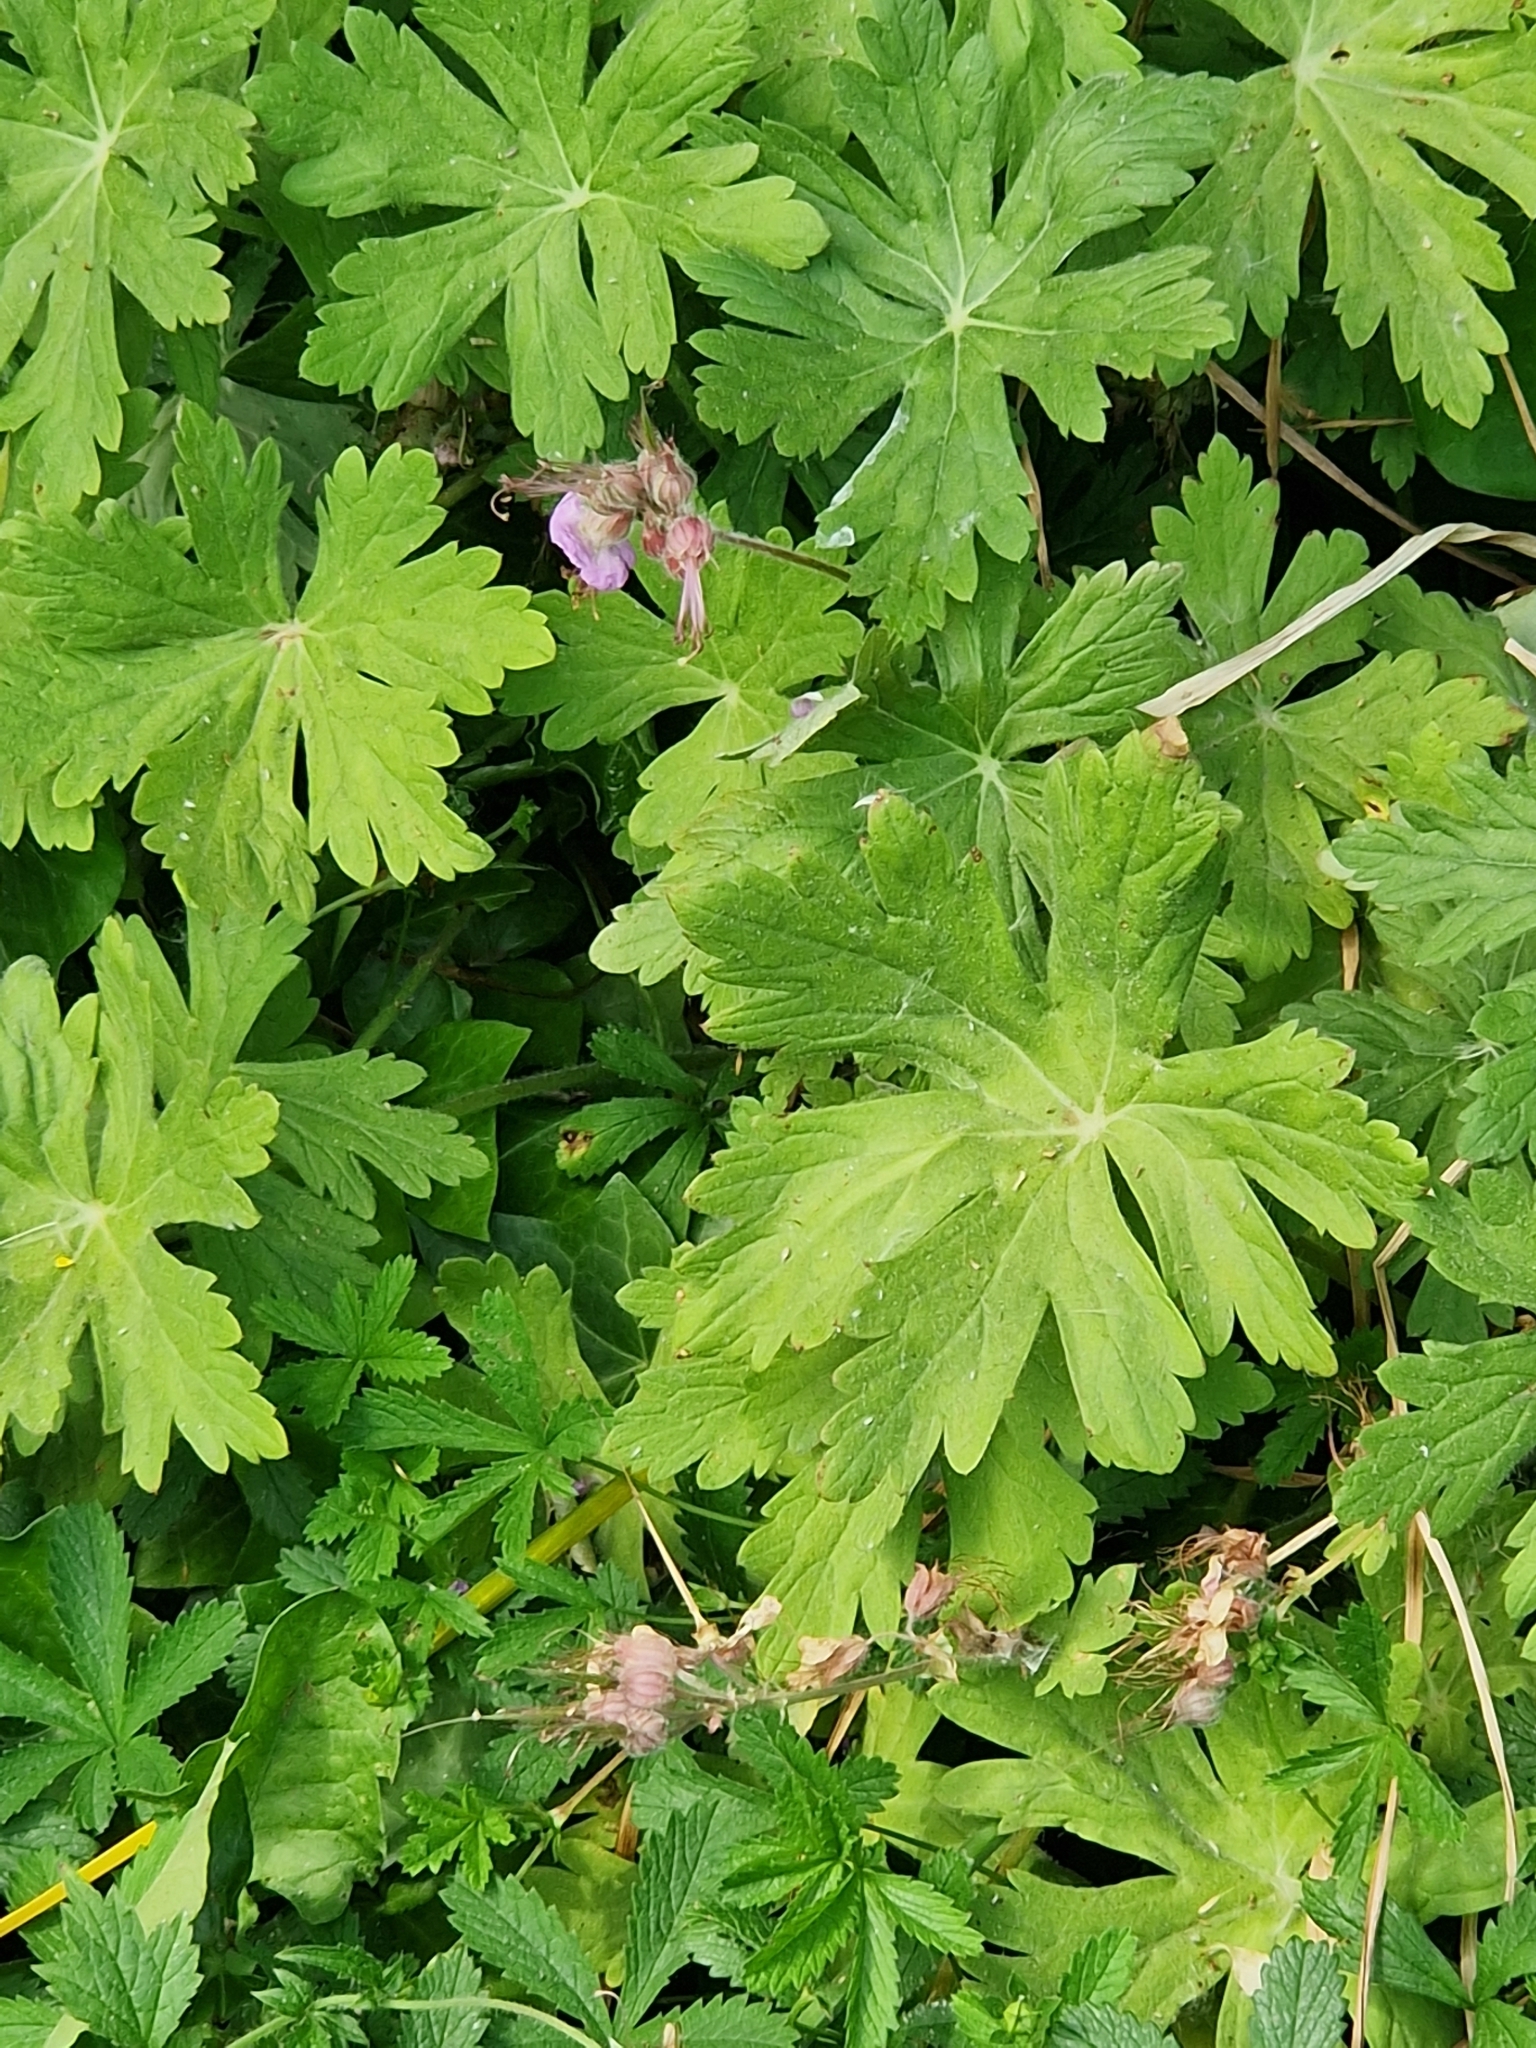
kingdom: Plantae
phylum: Tracheophyta
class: Magnoliopsida
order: Geraniales
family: Geraniaceae
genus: Geranium
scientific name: Geranium macrorrhizum
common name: Rock crane's-bill
